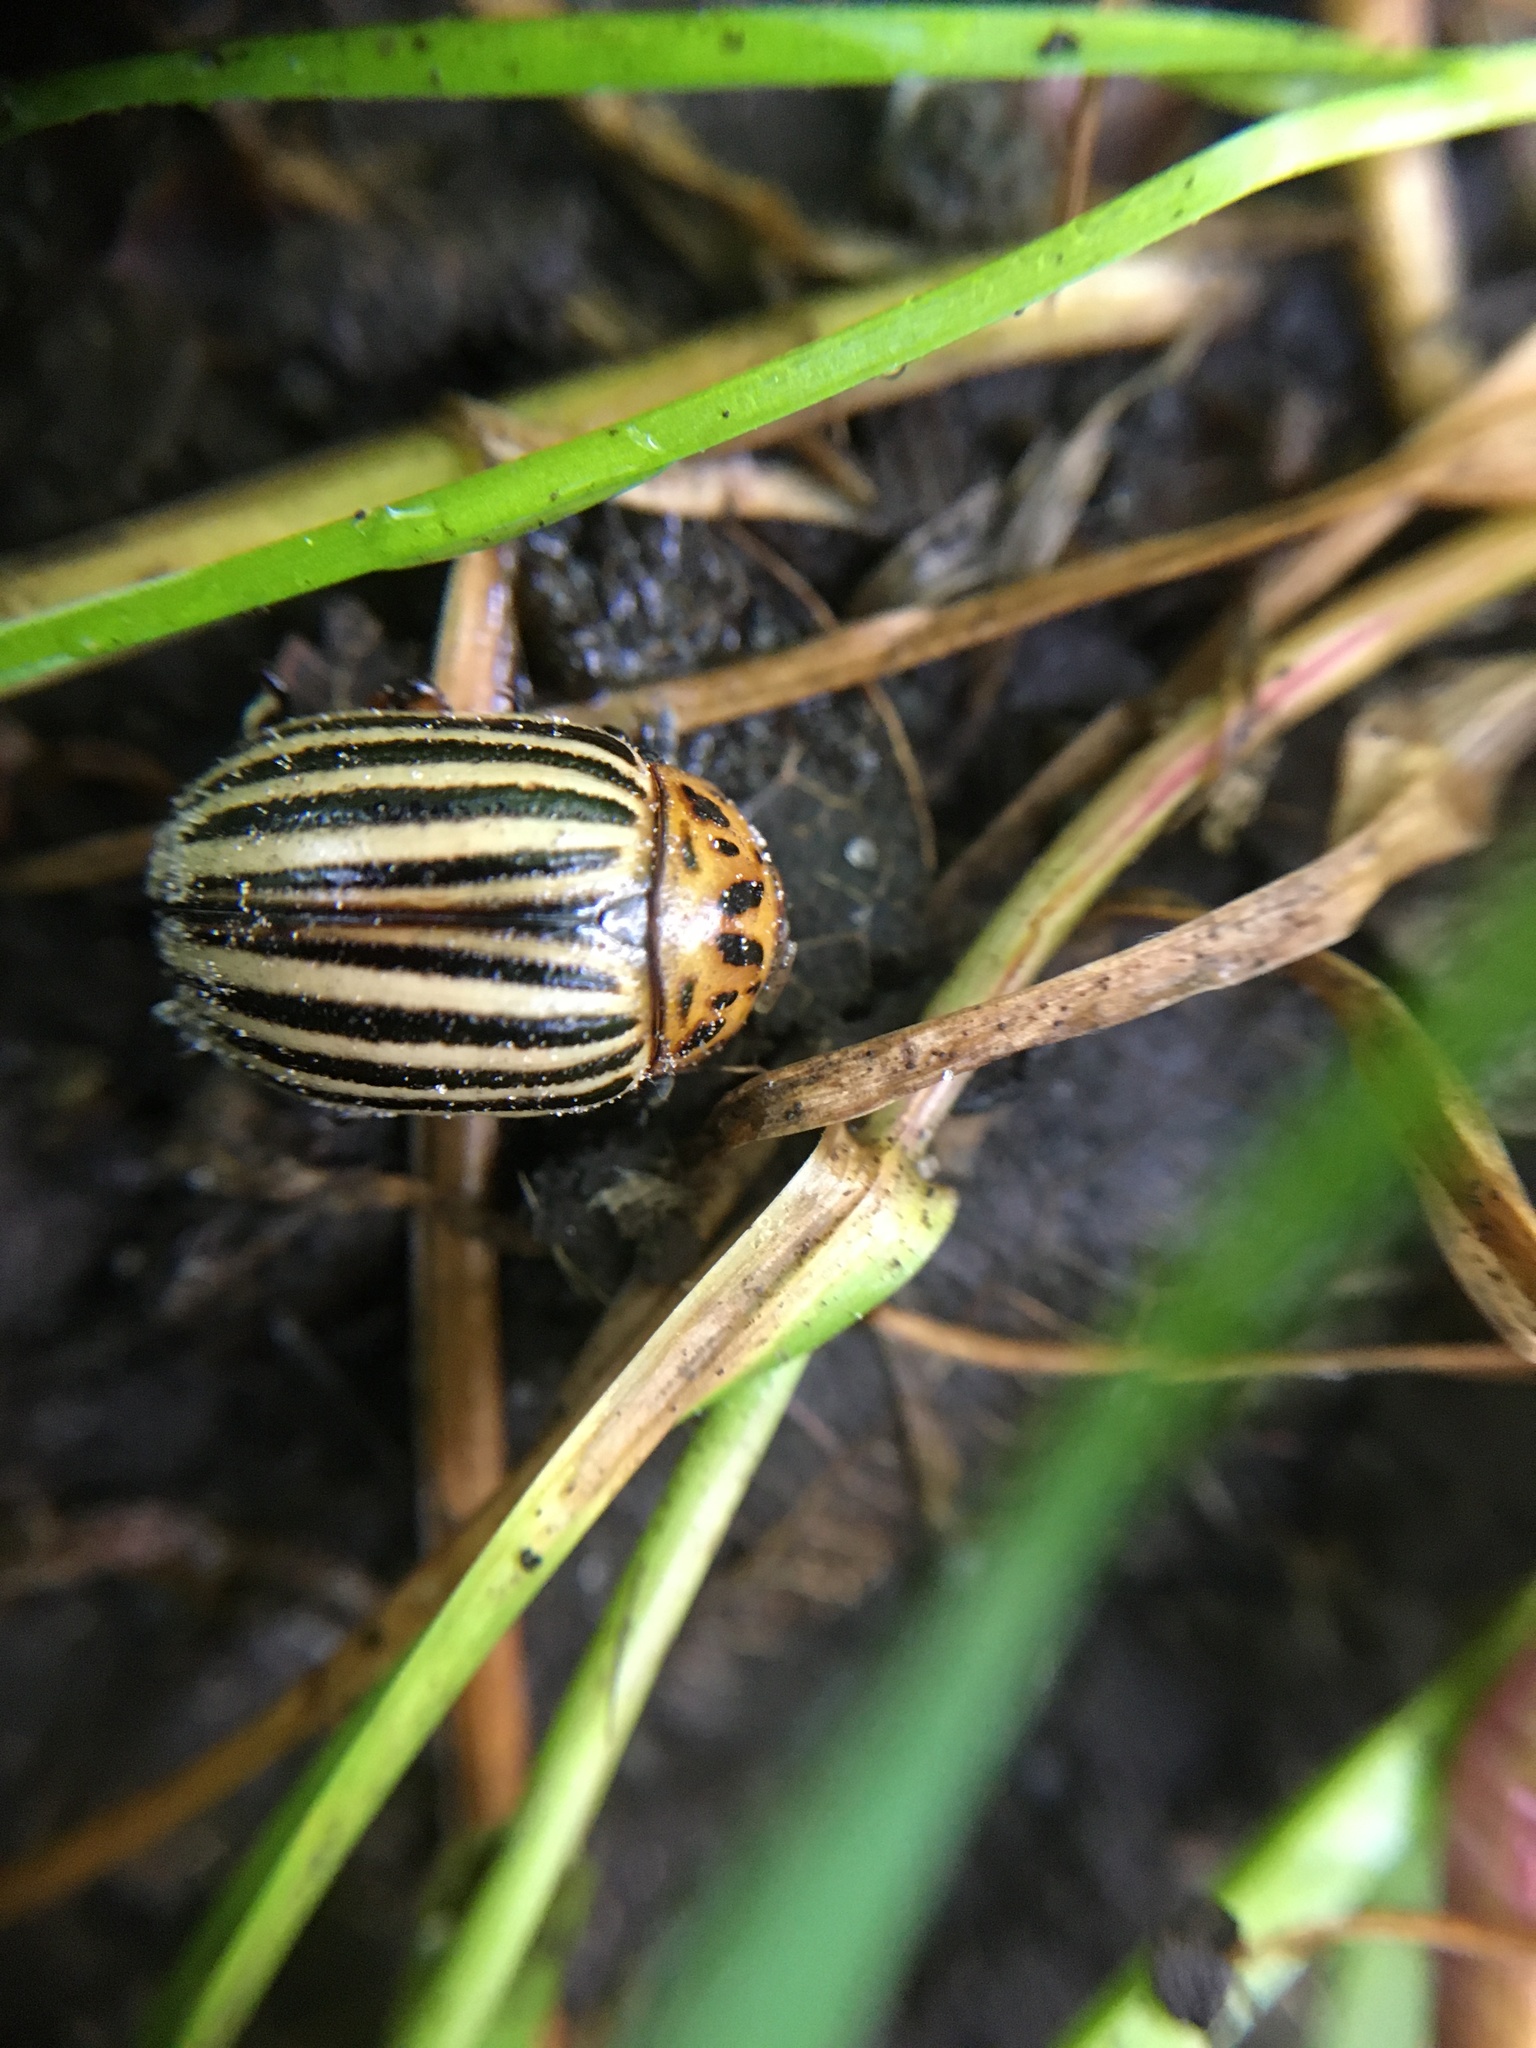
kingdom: Animalia
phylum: Arthropoda
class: Insecta
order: Coleoptera
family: Chrysomelidae
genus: Leptinotarsa
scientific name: Leptinotarsa decemlineata
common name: Colorado potato beetle
